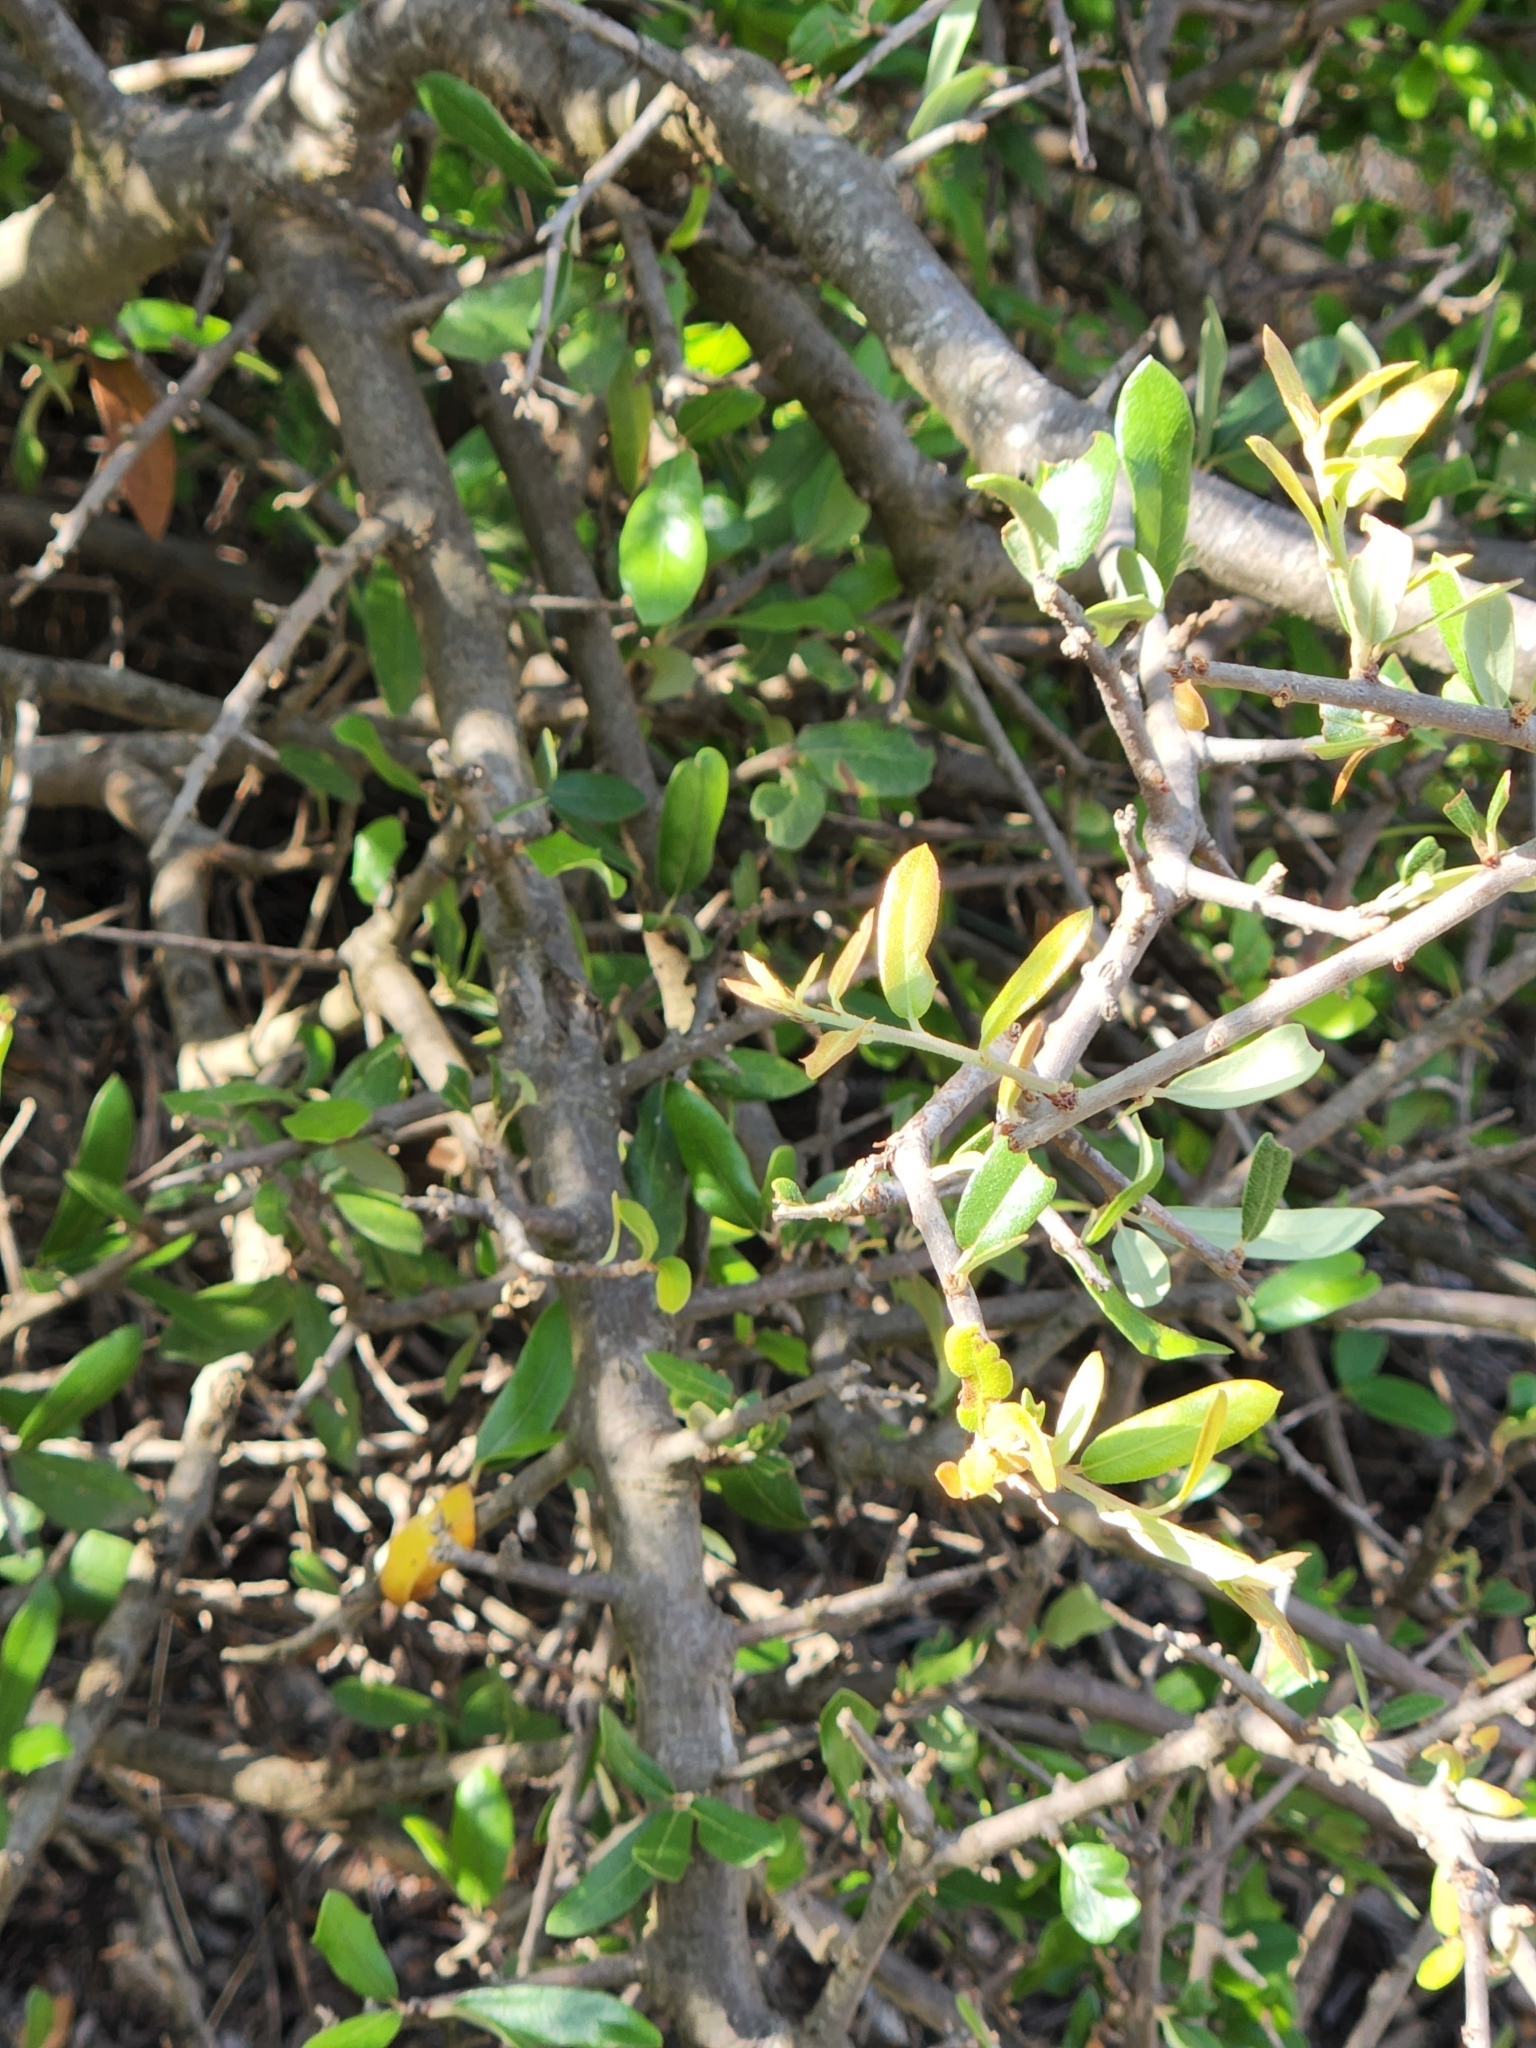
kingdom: Plantae
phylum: Tracheophyta
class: Magnoliopsida
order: Ericales
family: Sapotaceae
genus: Sideroxylon
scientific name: Sideroxylon lanuginosum
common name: Chittamwood
